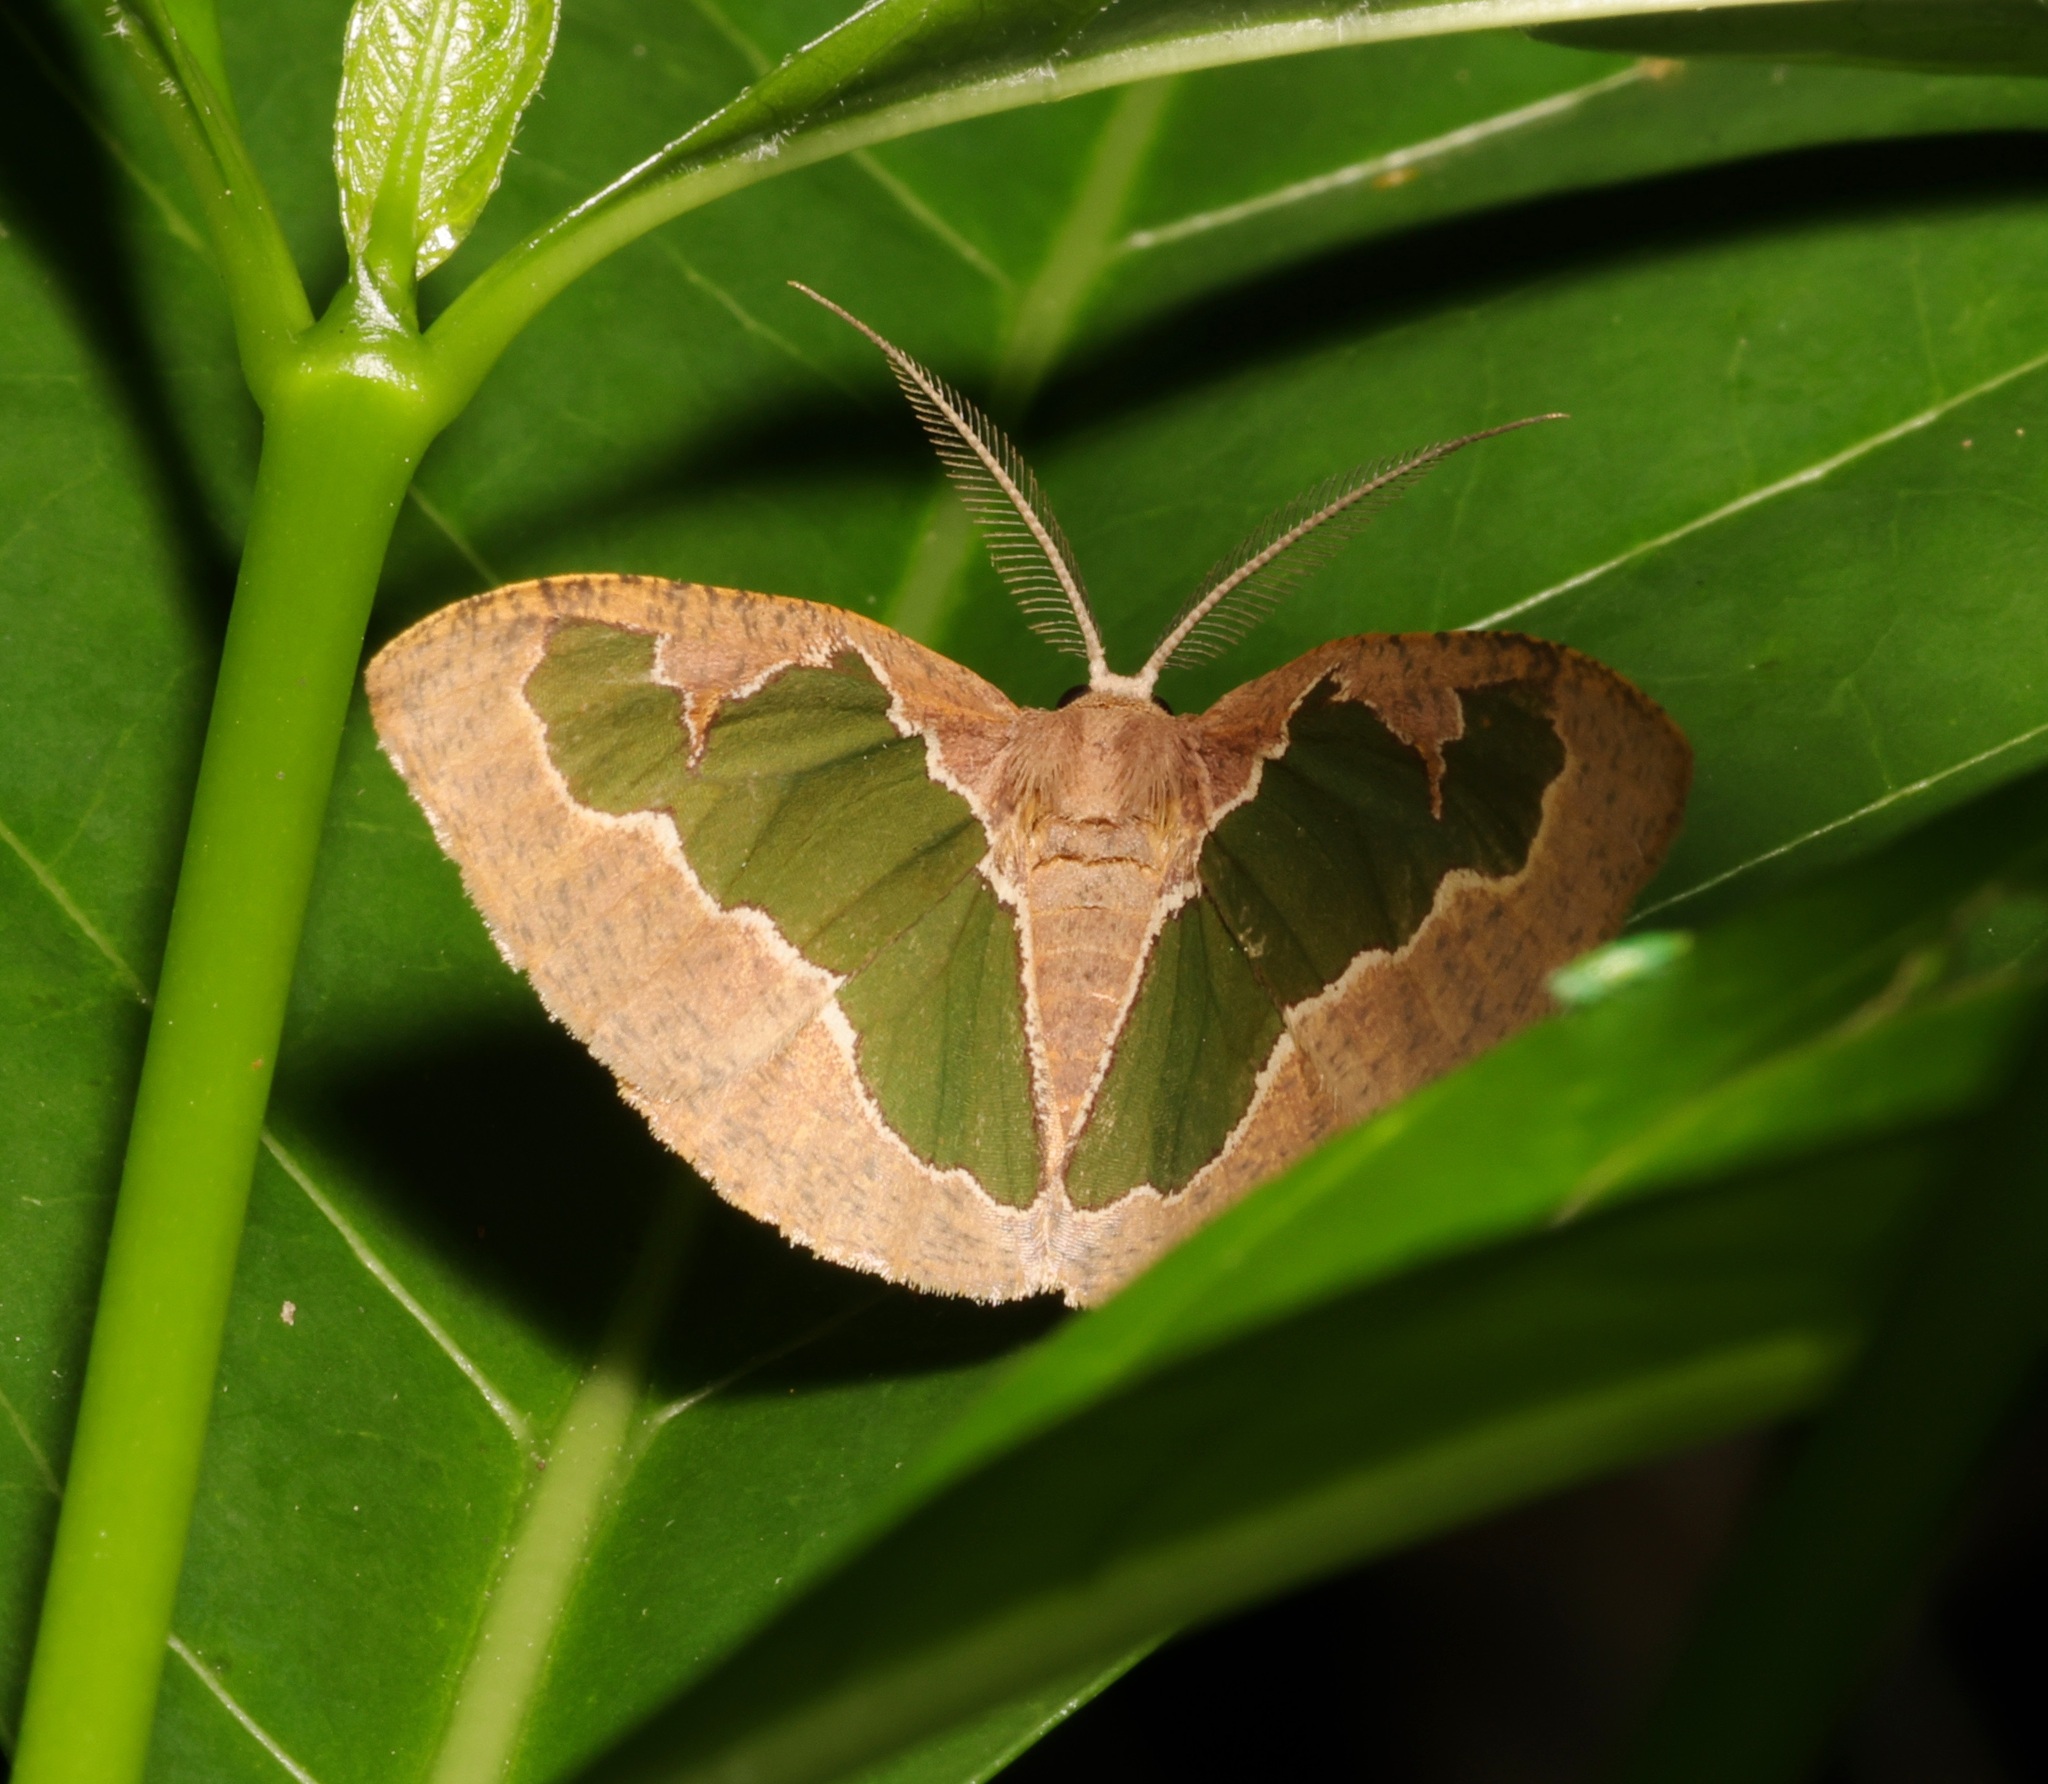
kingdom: Animalia
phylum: Arthropoda
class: Insecta
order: Lepidoptera
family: Geometridae
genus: Celenna
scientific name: Celenna festivaria
